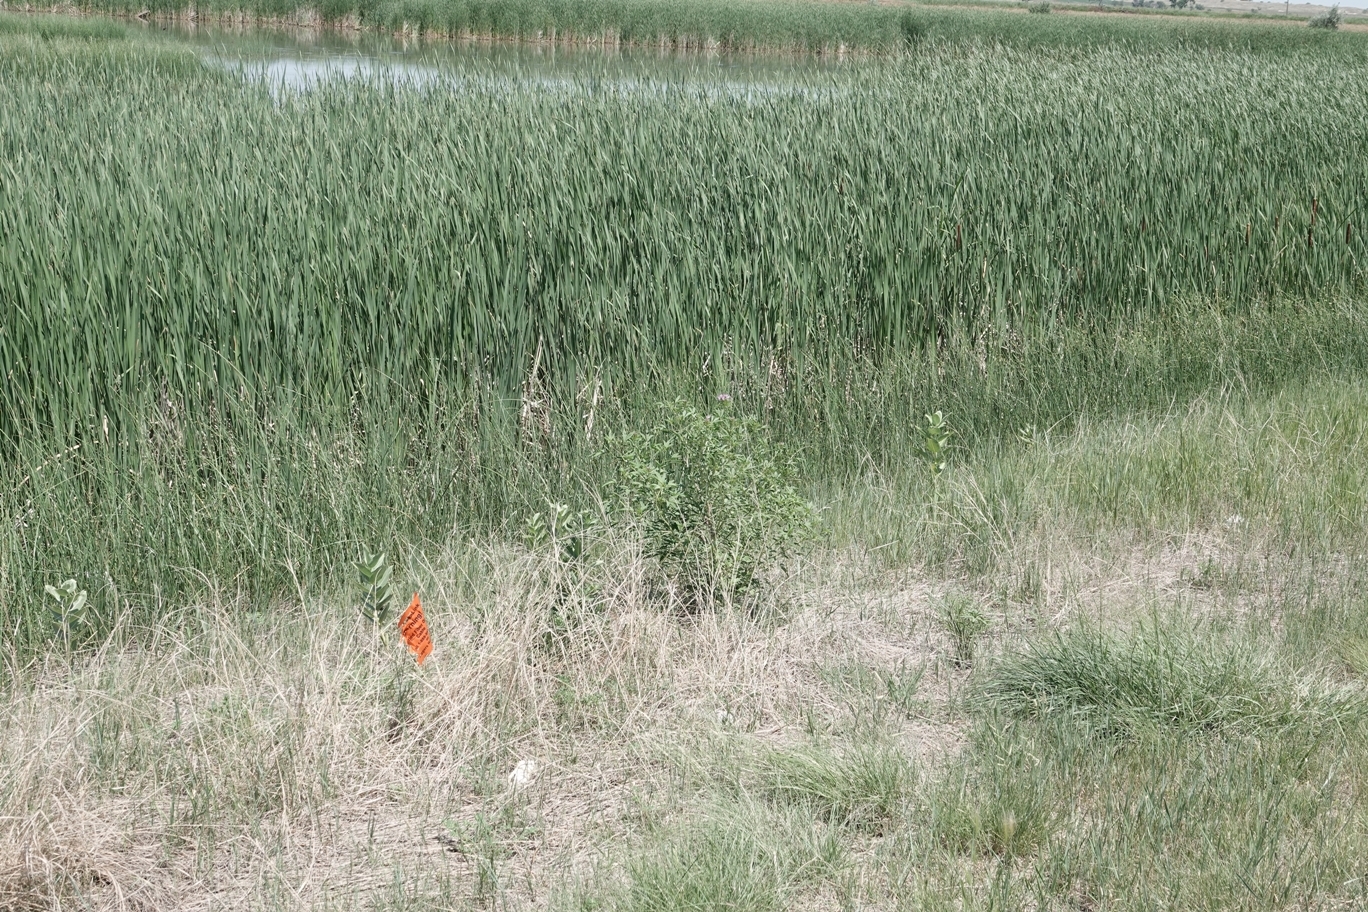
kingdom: Plantae
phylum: Tracheophyta
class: Magnoliopsida
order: Brassicales
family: Cleomaceae
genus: Cleomella
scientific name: Cleomella serrulata
